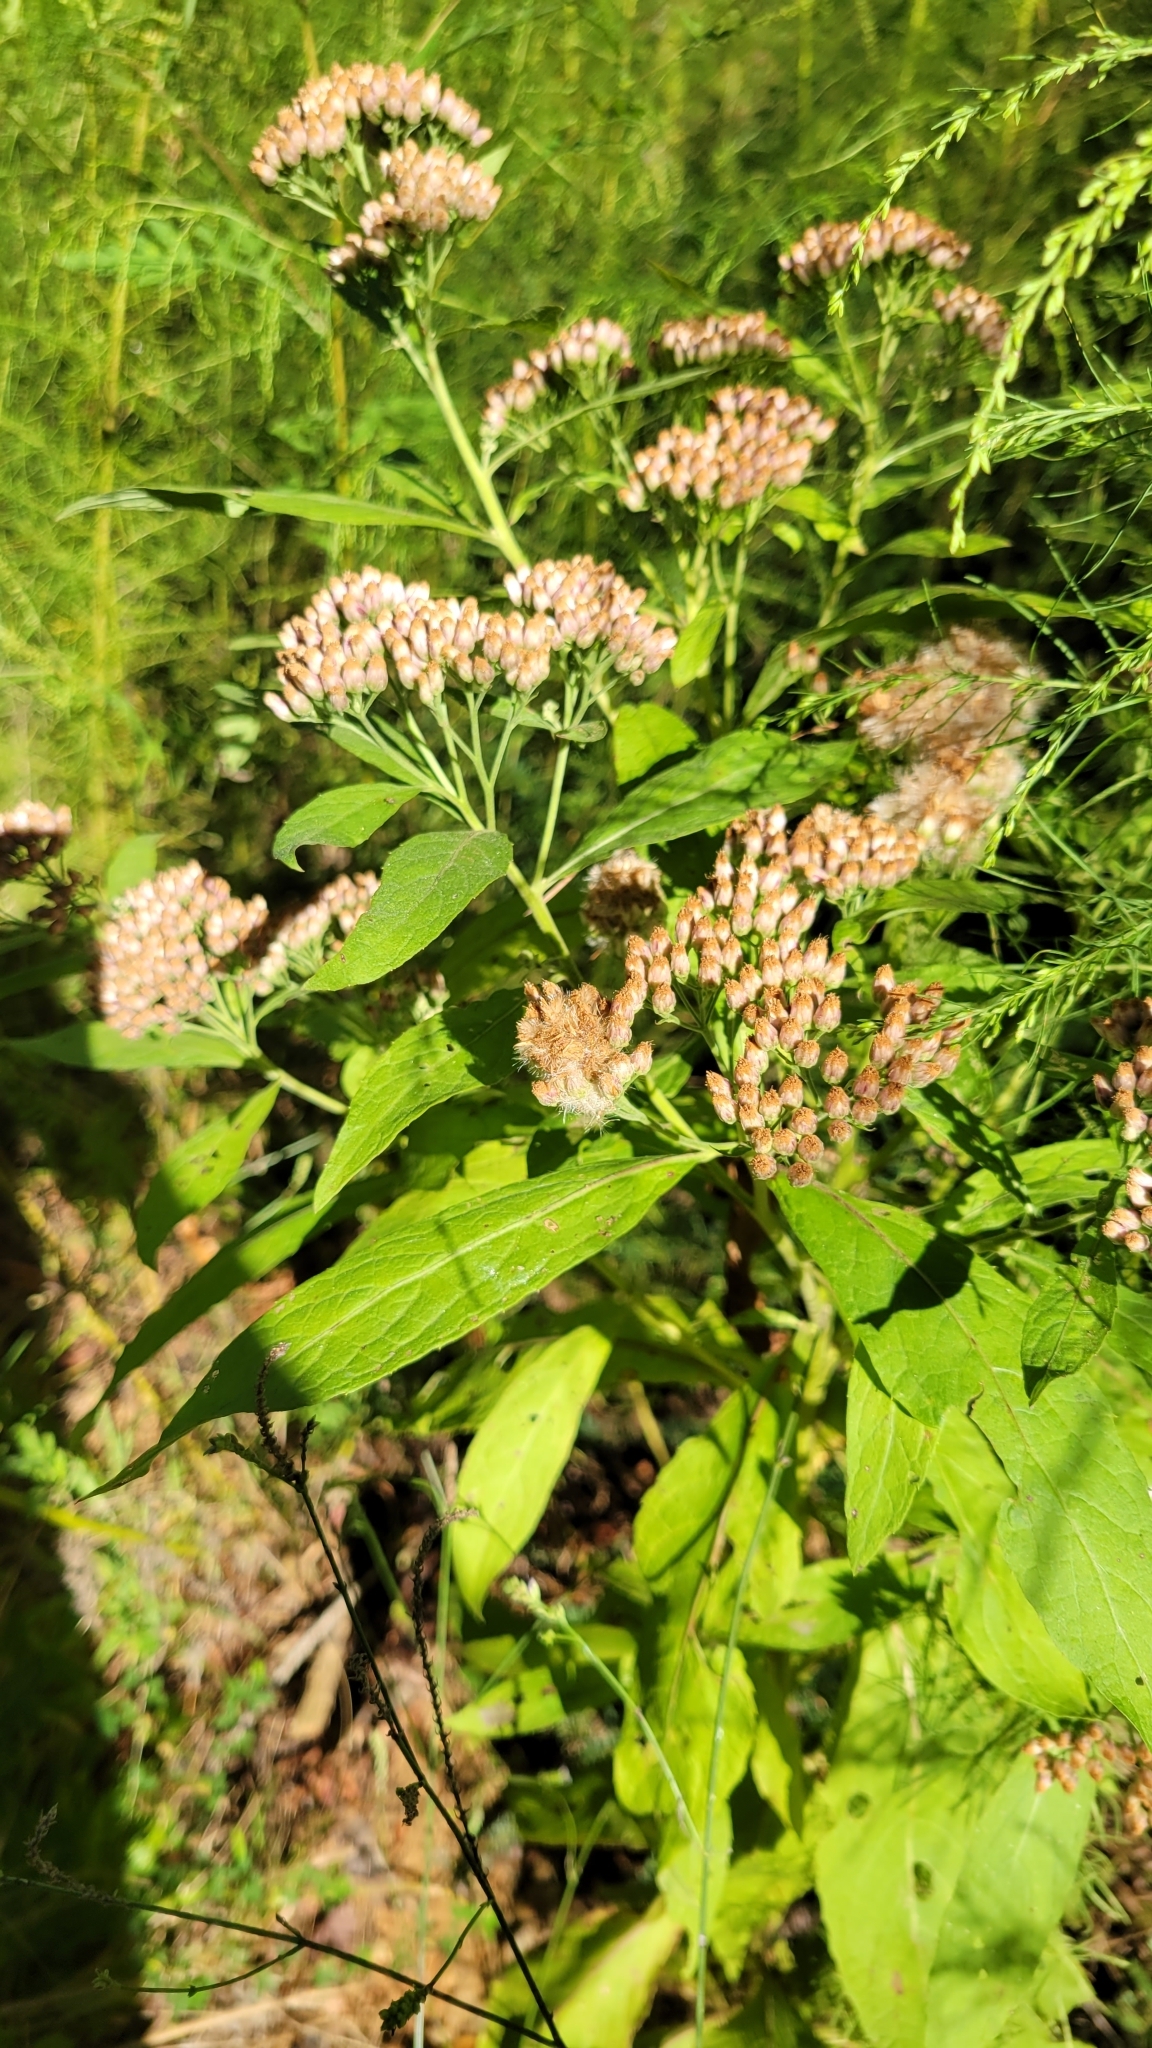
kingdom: Plantae
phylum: Tracheophyta
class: Magnoliopsida
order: Asterales
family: Asteraceae
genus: Pluchea
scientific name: Pluchea camphorata
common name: Camphor pluchea
